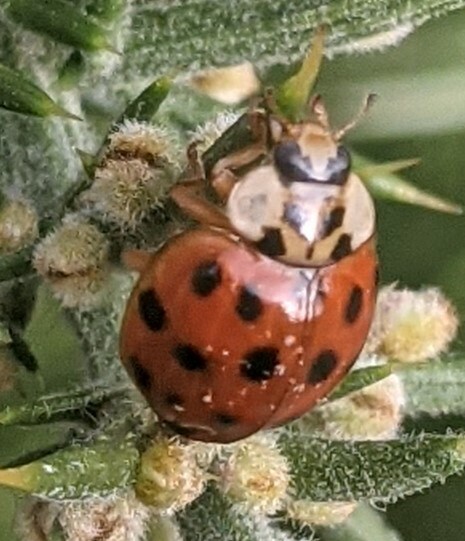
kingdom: Animalia
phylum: Arthropoda
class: Insecta
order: Coleoptera
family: Coccinellidae
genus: Harmonia
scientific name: Harmonia axyridis
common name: Harlequin ladybird
